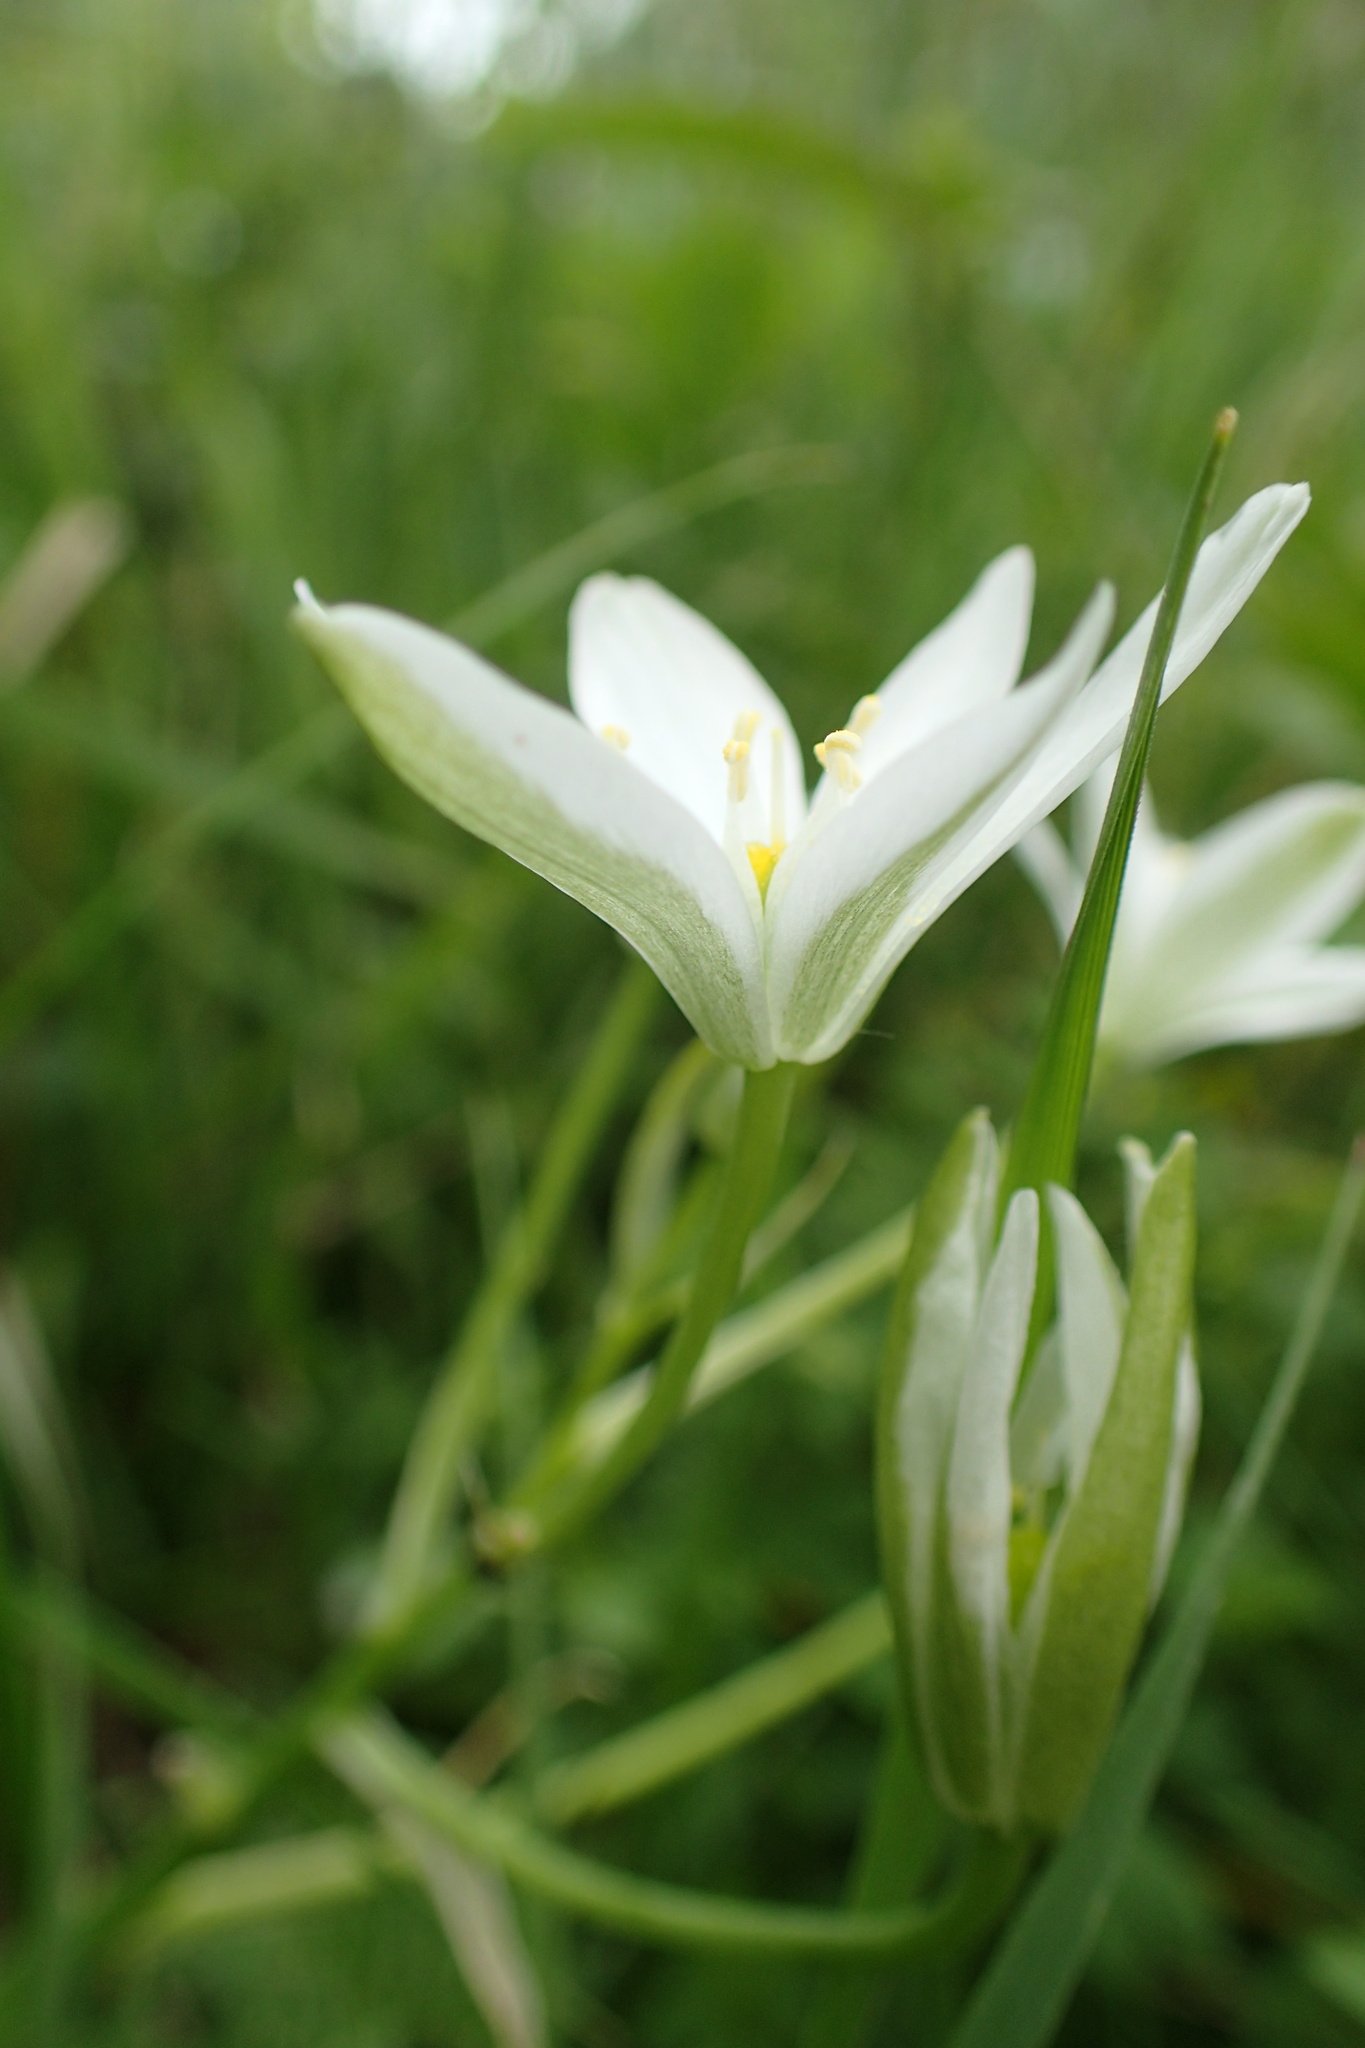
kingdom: Plantae
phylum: Tracheophyta
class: Liliopsida
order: Asparagales
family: Asparagaceae
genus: Ornithogalum
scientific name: Ornithogalum umbellatum
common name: Garden star-of-bethlehem
